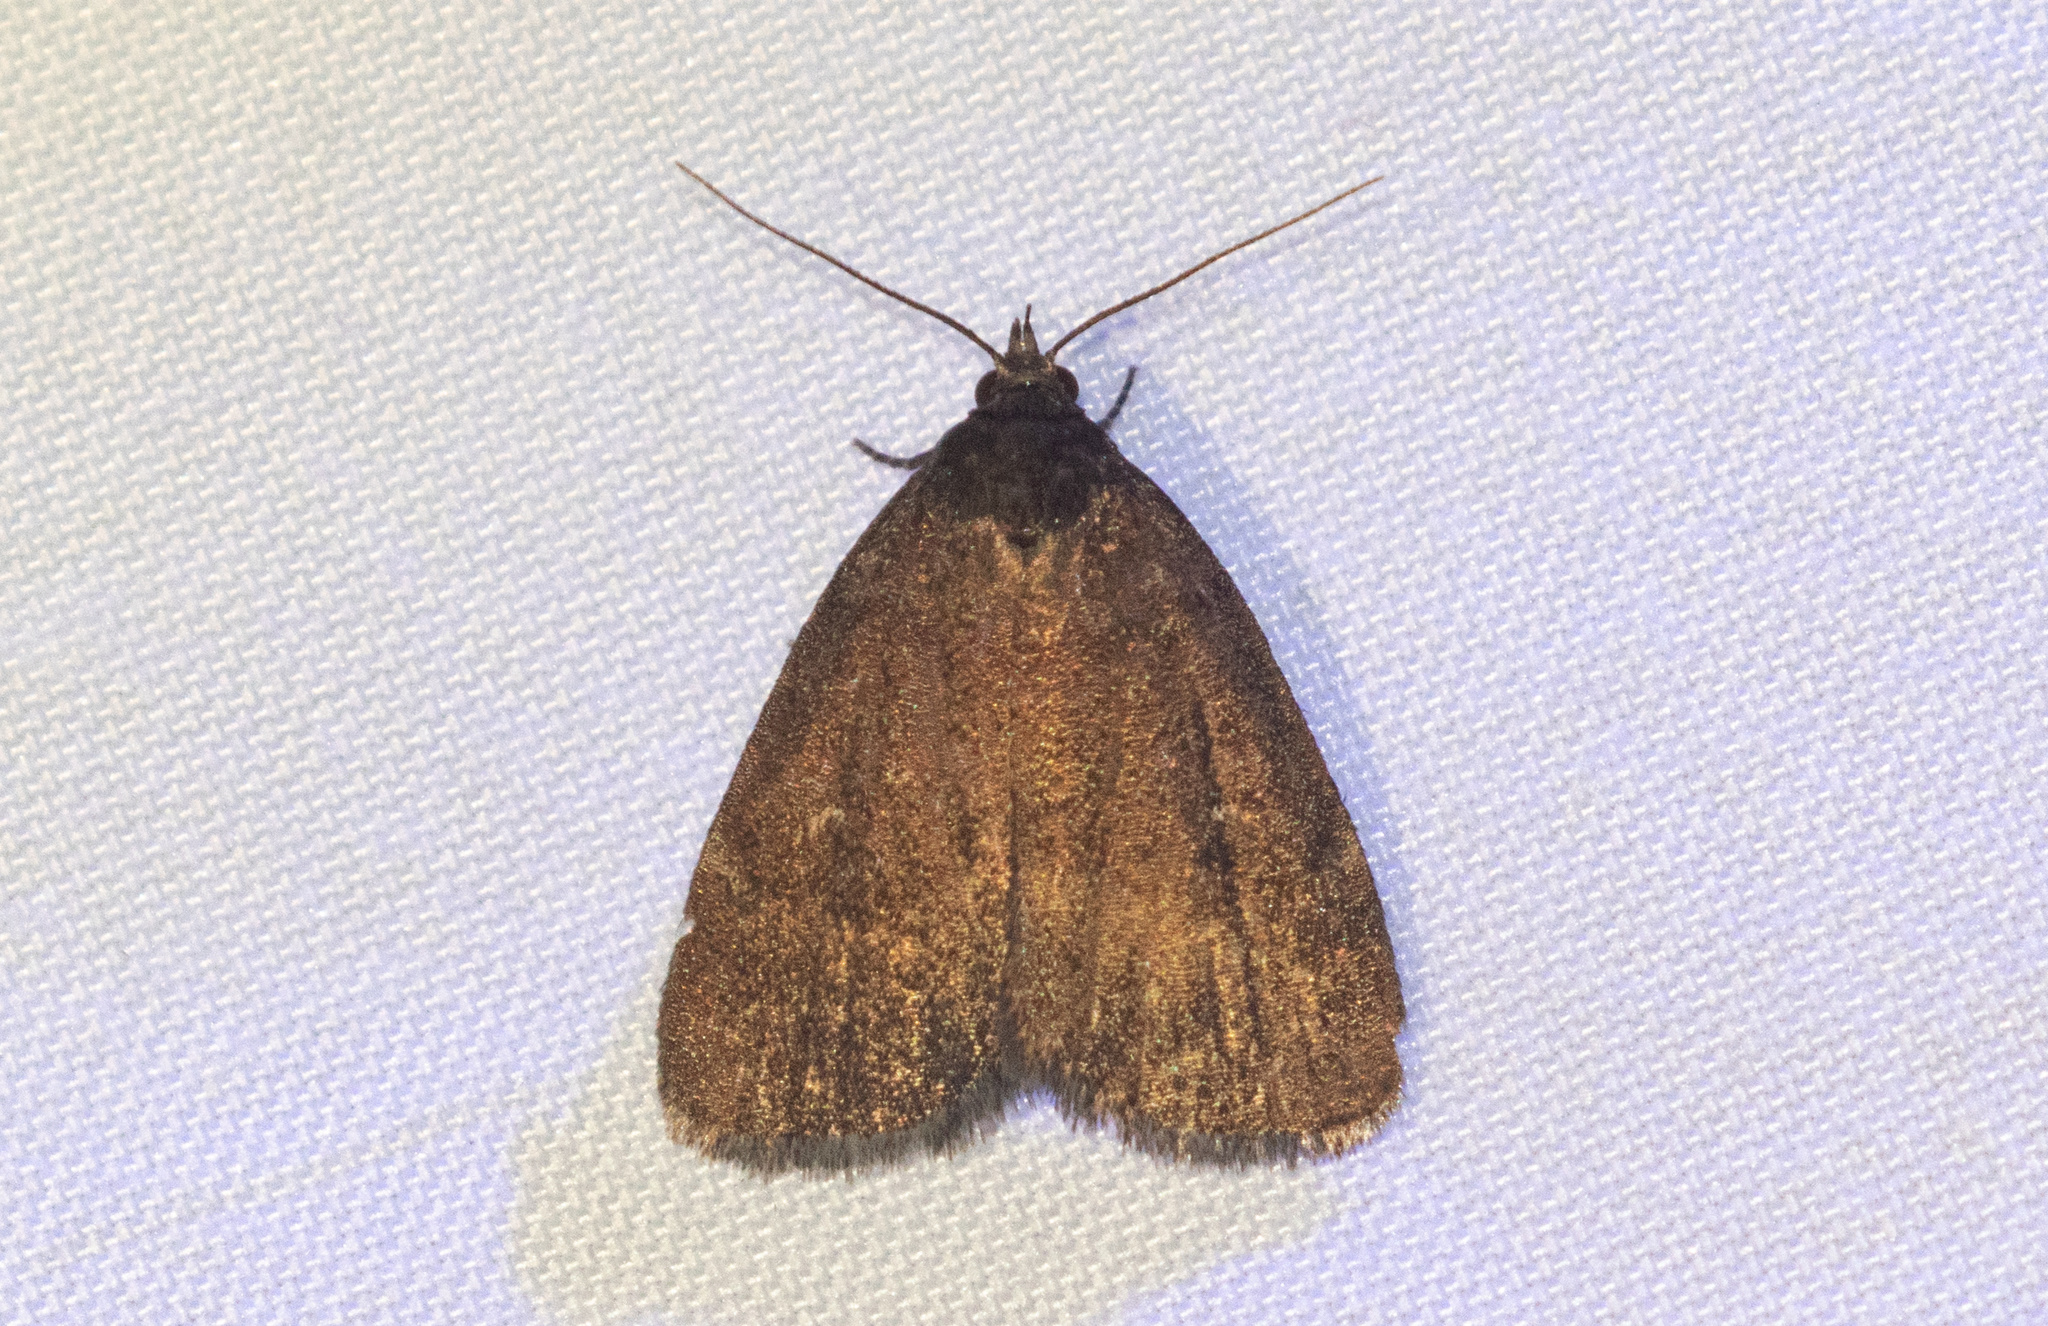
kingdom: Animalia
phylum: Arthropoda
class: Insecta
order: Lepidoptera
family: Erebidae
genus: Idia
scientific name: Idia rotundalis
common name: Rotund idia moth
